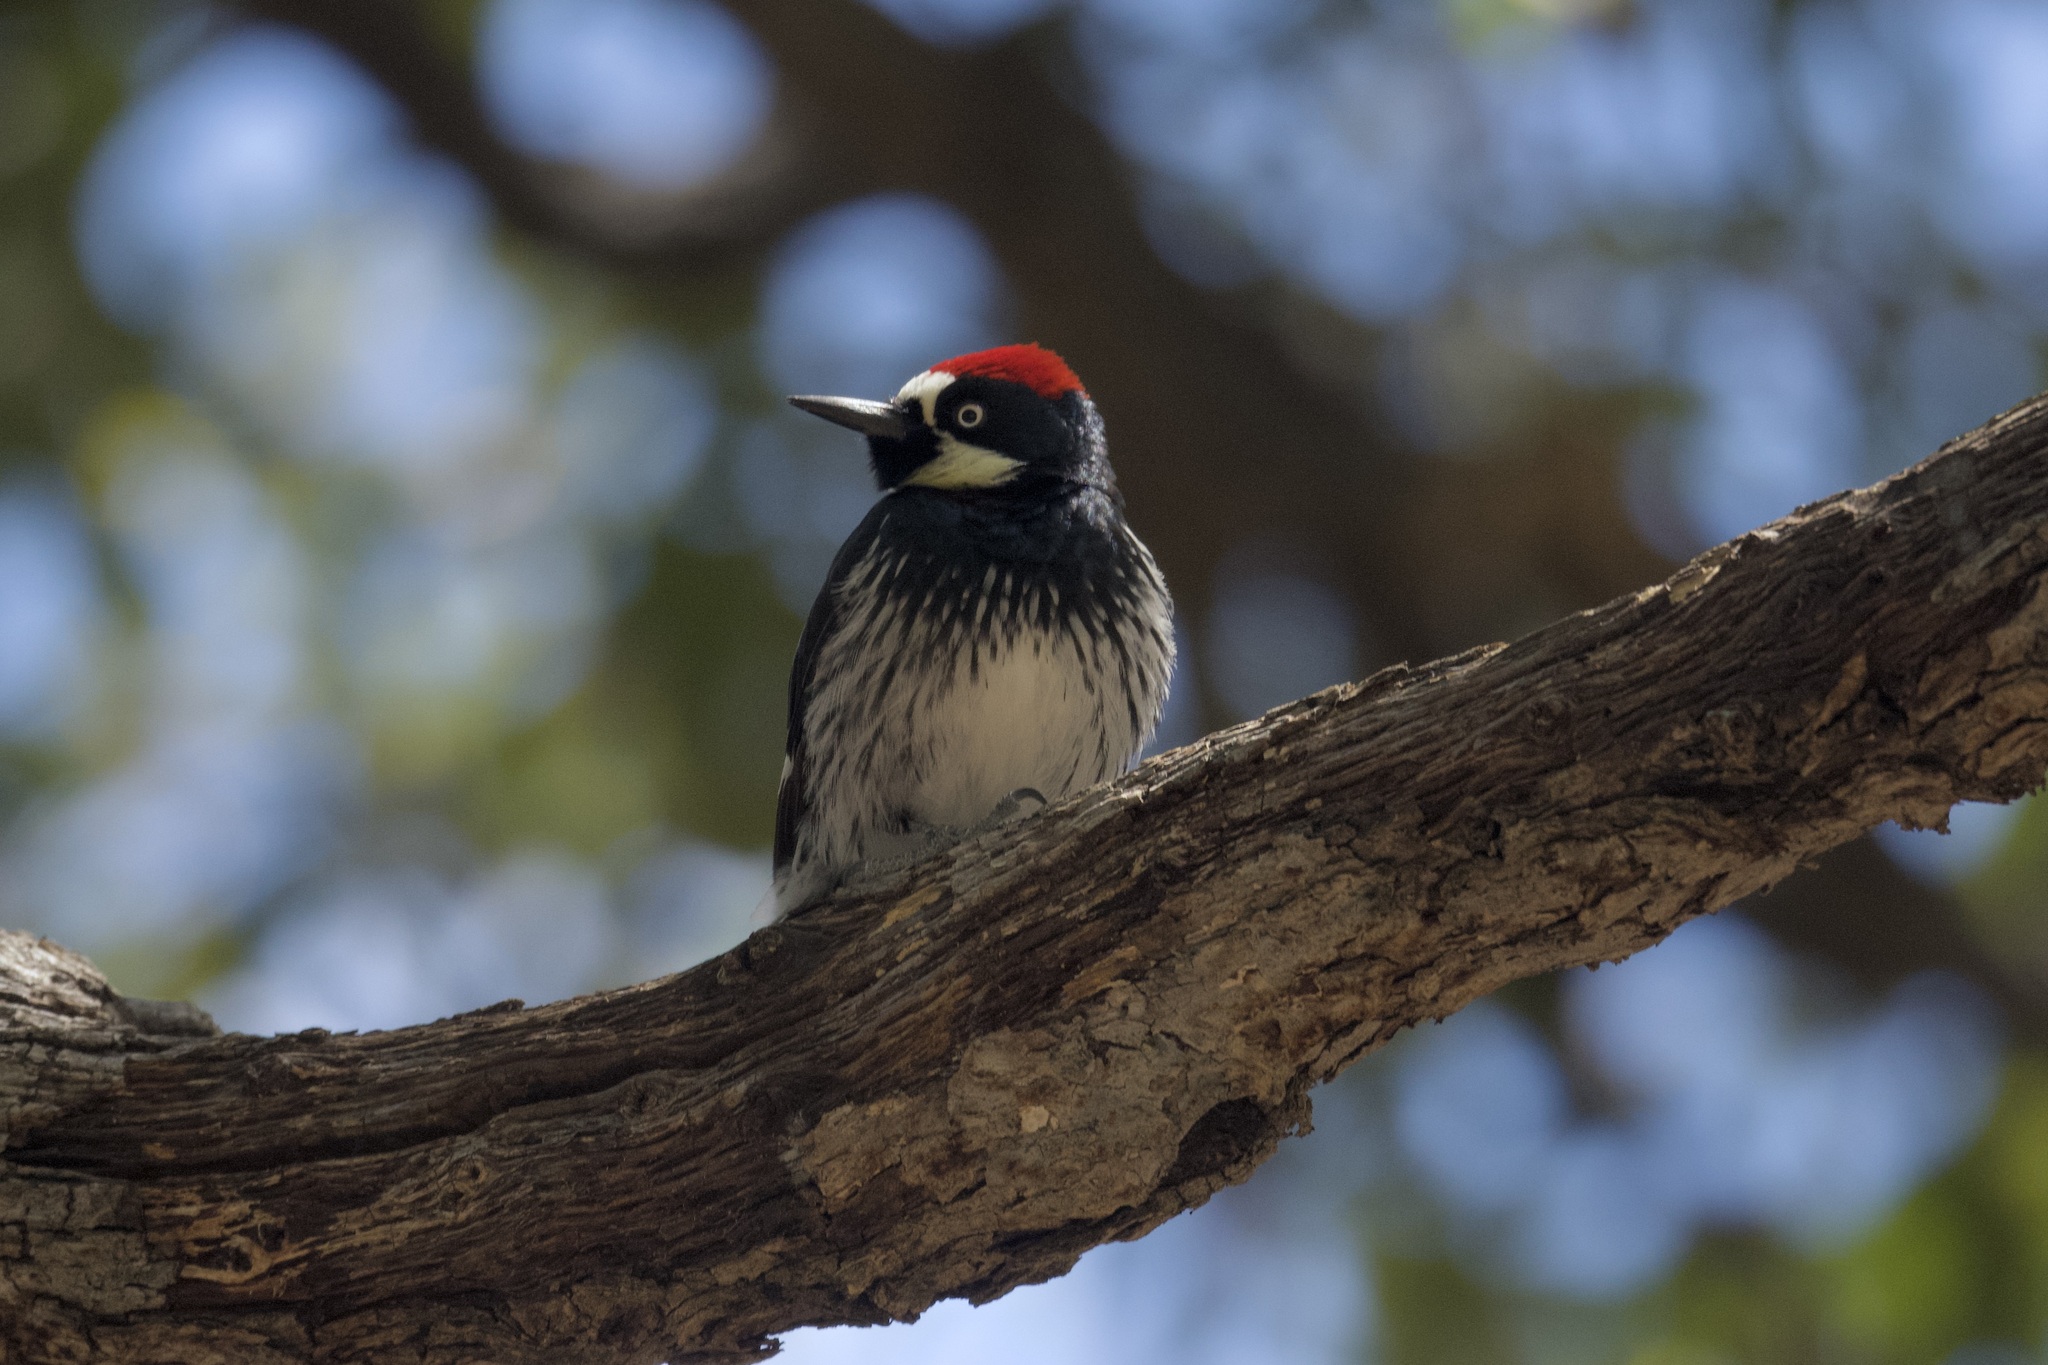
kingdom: Animalia
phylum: Chordata
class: Aves
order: Piciformes
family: Picidae
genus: Melanerpes
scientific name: Melanerpes formicivorus
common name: Acorn woodpecker
